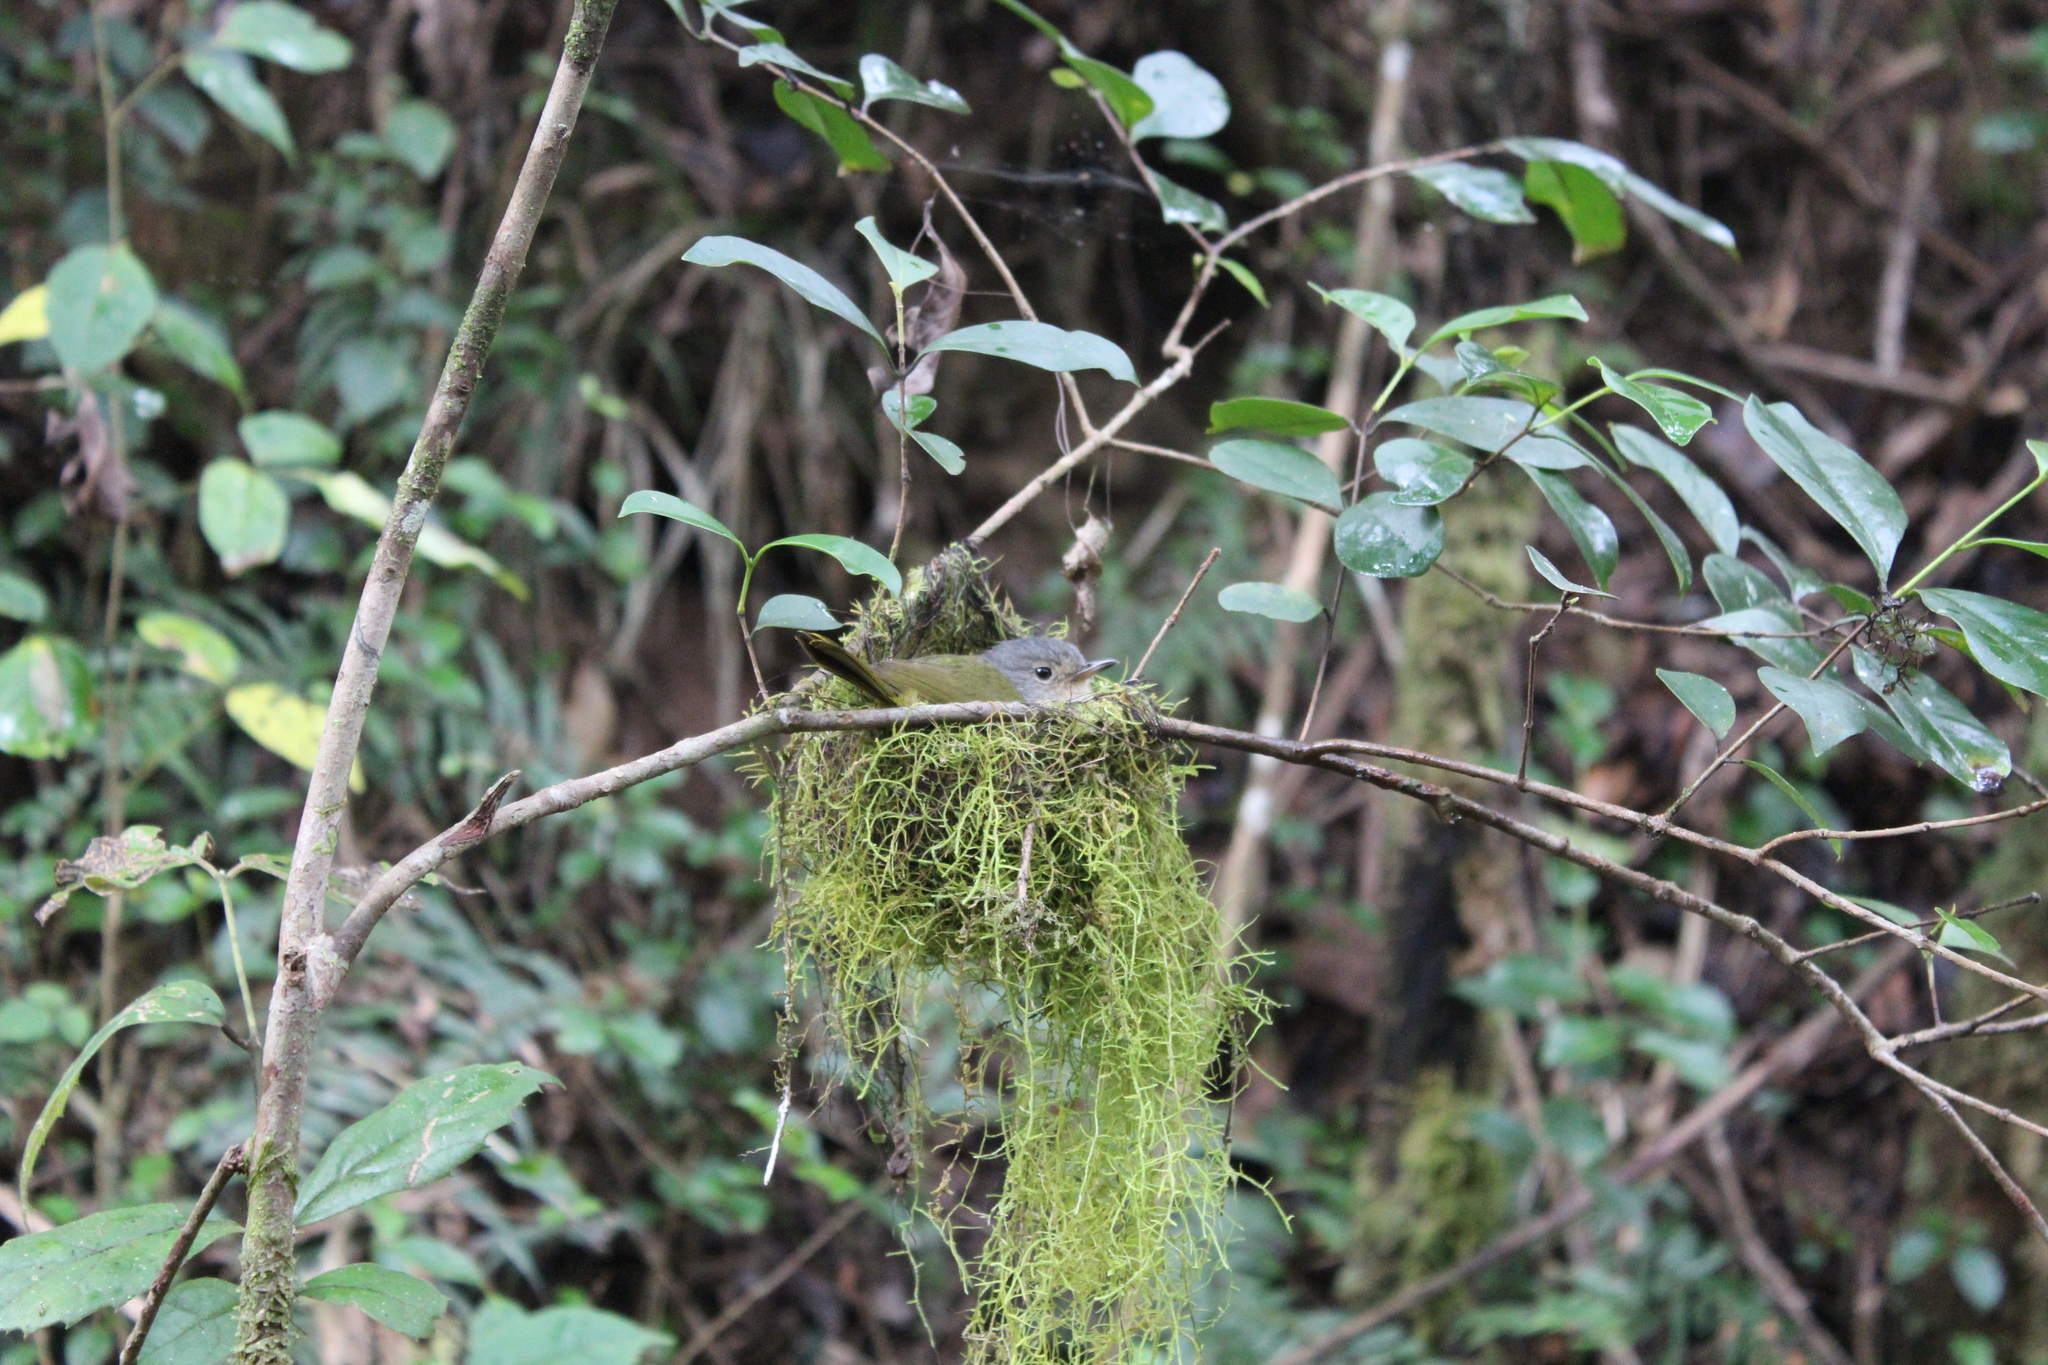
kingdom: Animalia
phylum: Chordata
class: Aves
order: Passeriformes
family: Bernieridae
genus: Xanthomixis
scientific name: Xanthomixis cinereiceps
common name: Grey-crowned tetraka
